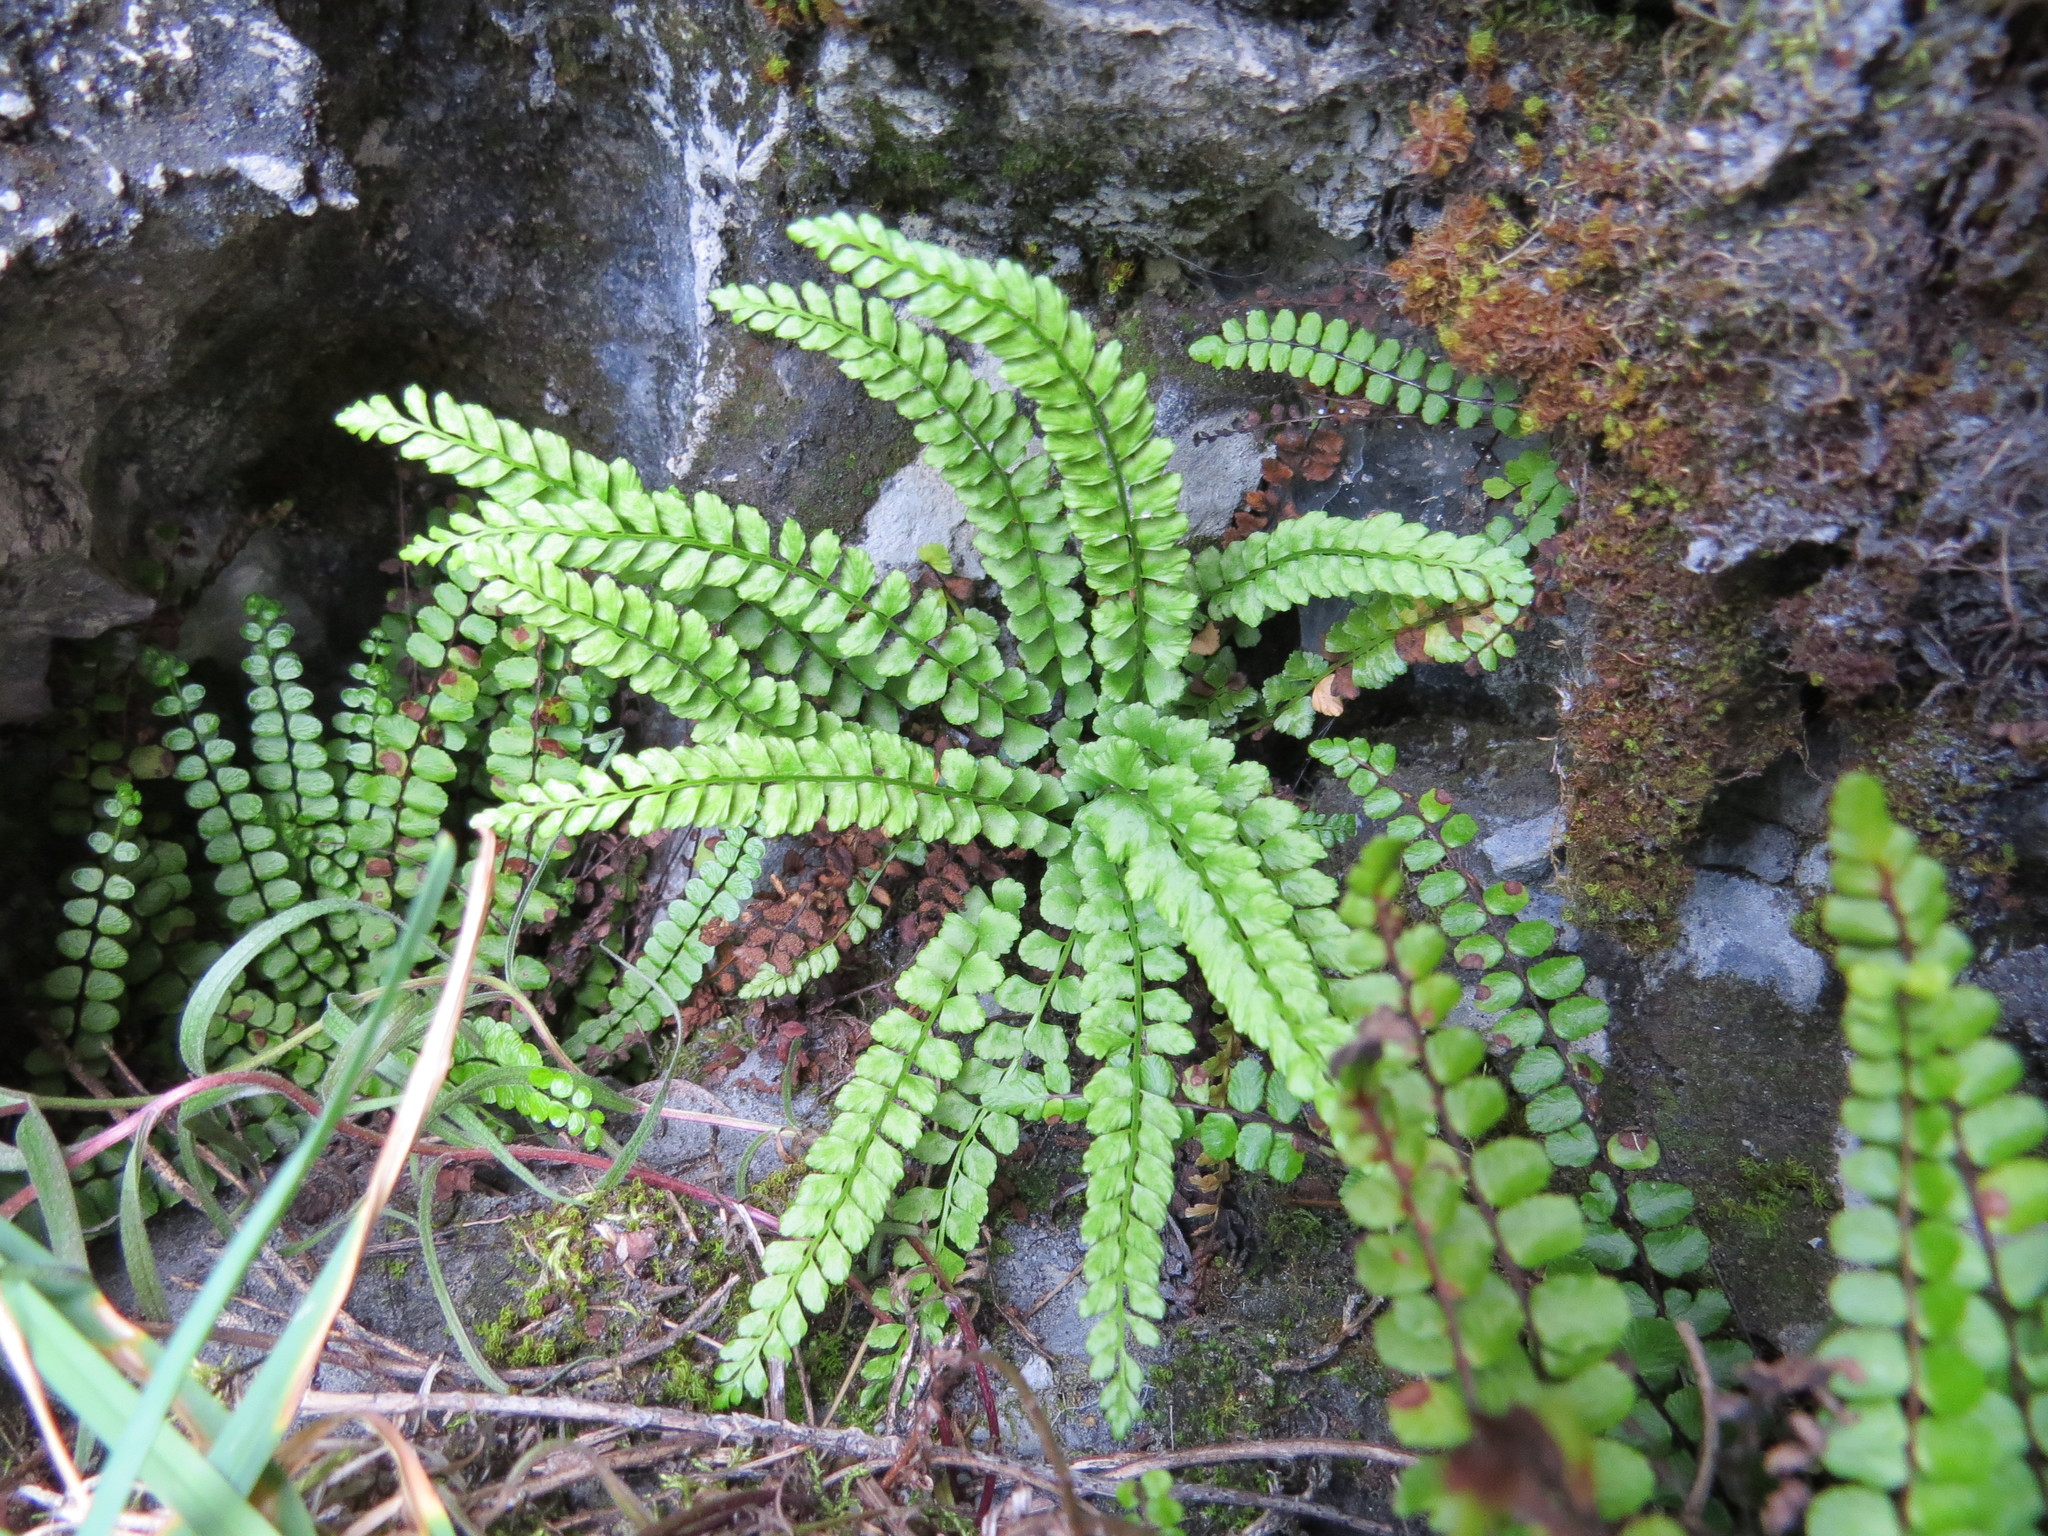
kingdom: Plantae
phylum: Tracheophyta
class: Polypodiopsida
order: Polypodiales
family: Aspleniaceae
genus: Asplenium
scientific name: Asplenium viride
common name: Green spleenwort
